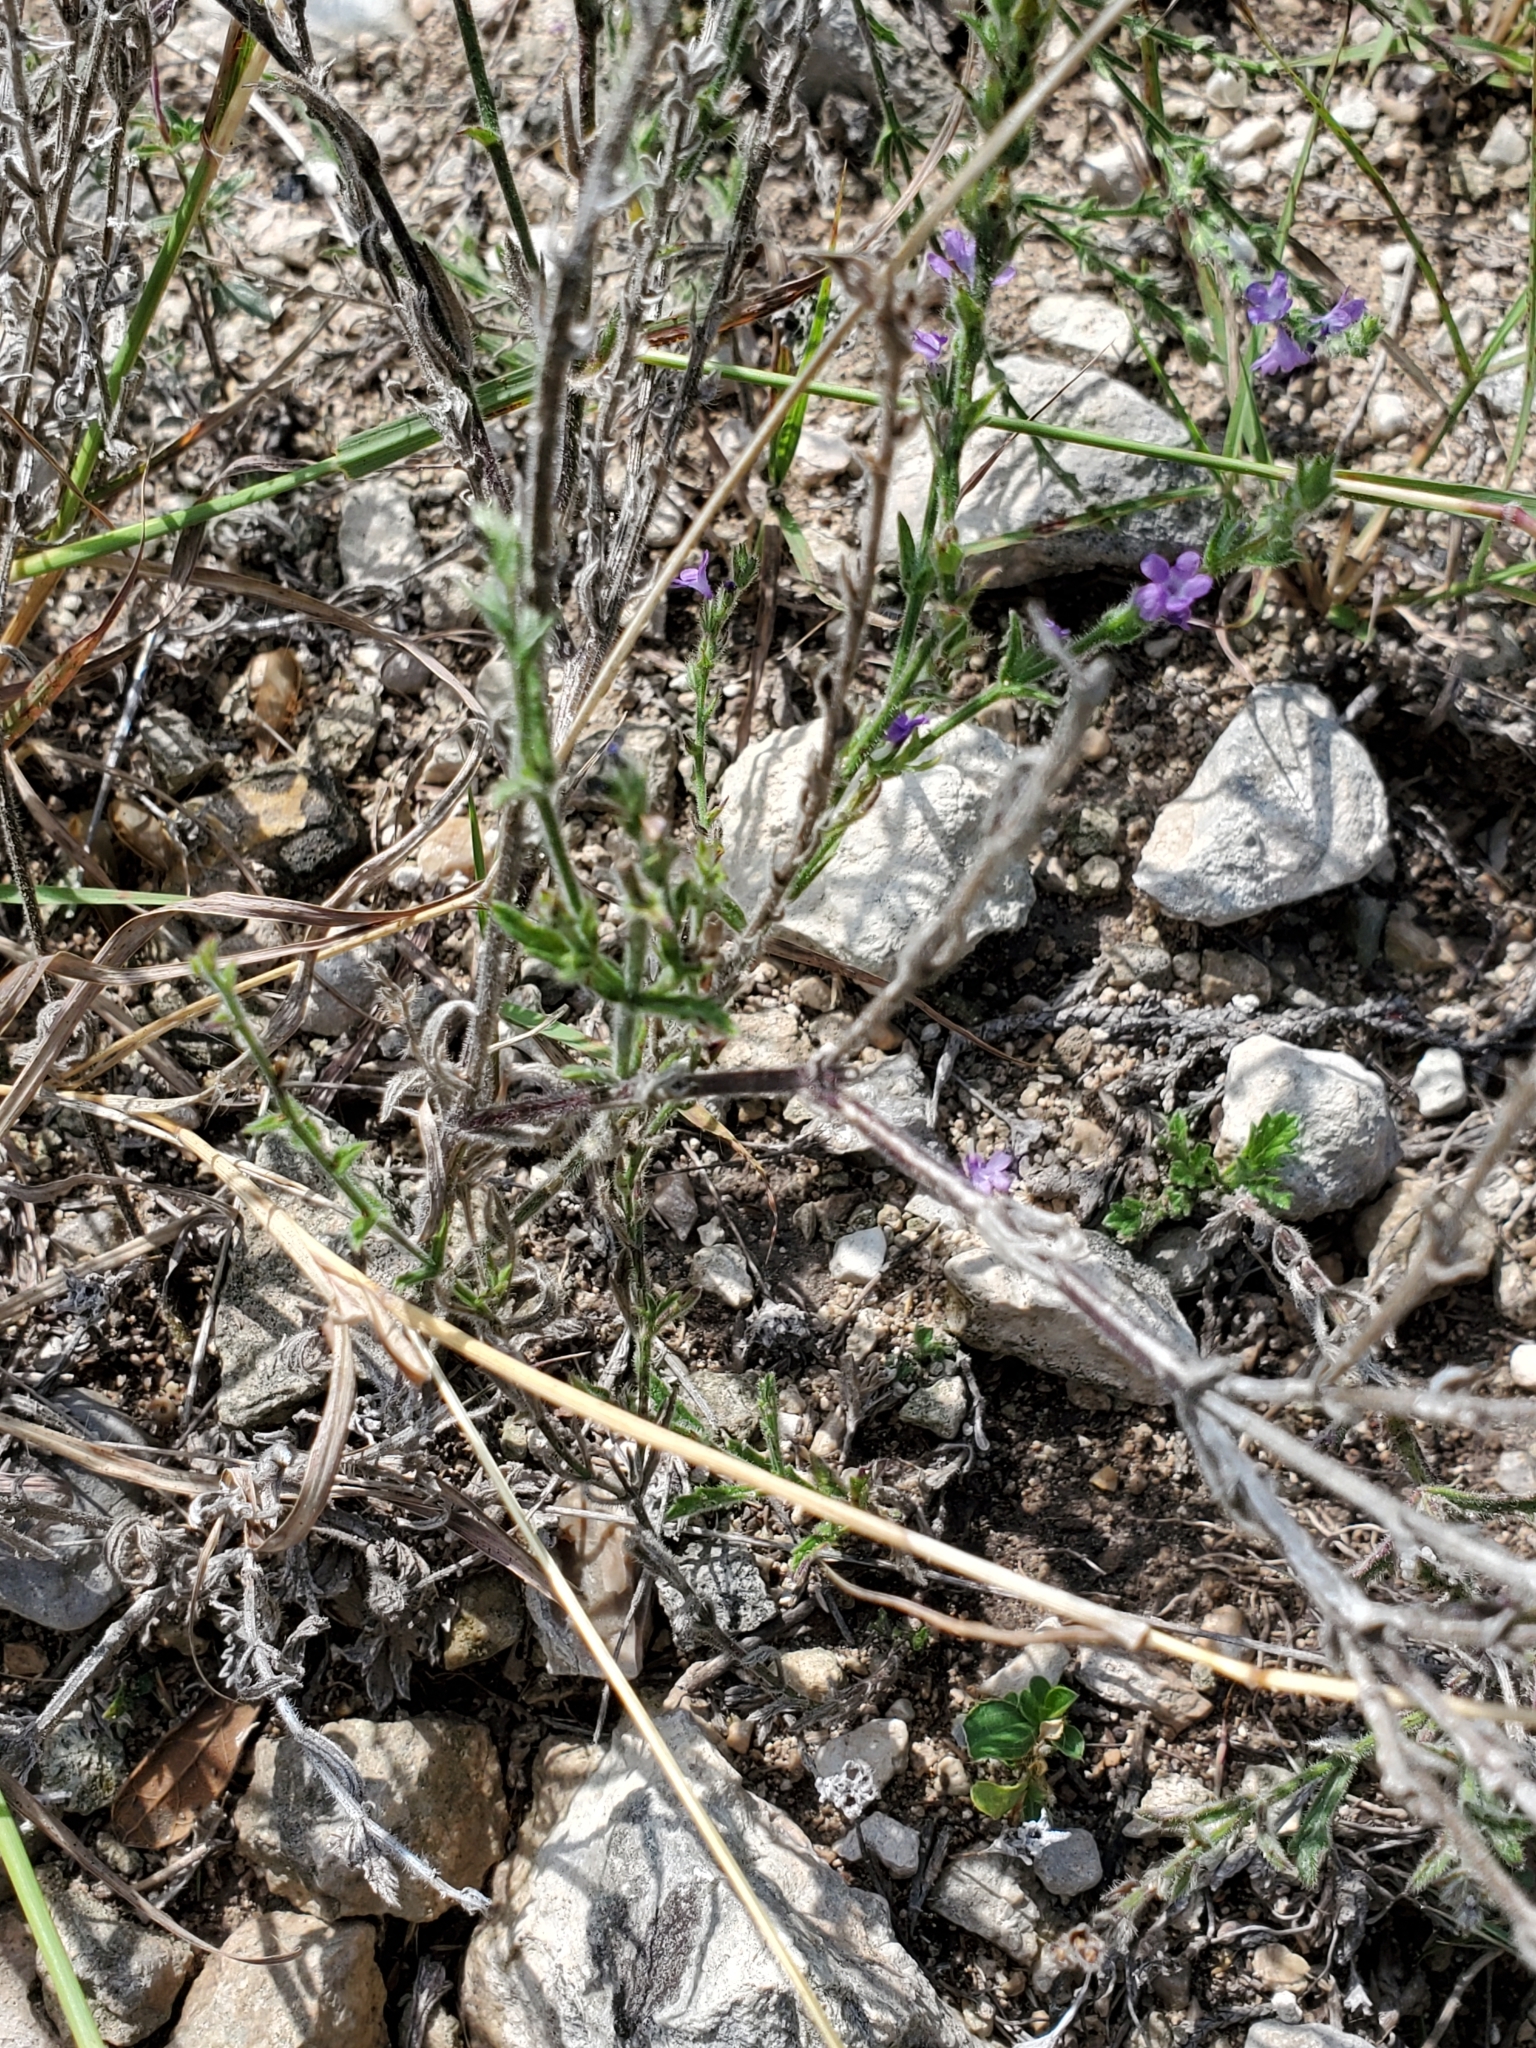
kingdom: Plantae
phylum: Tracheophyta
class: Magnoliopsida
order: Lamiales
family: Verbenaceae
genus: Verbena
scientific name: Verbena canescens
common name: Gray vervain
